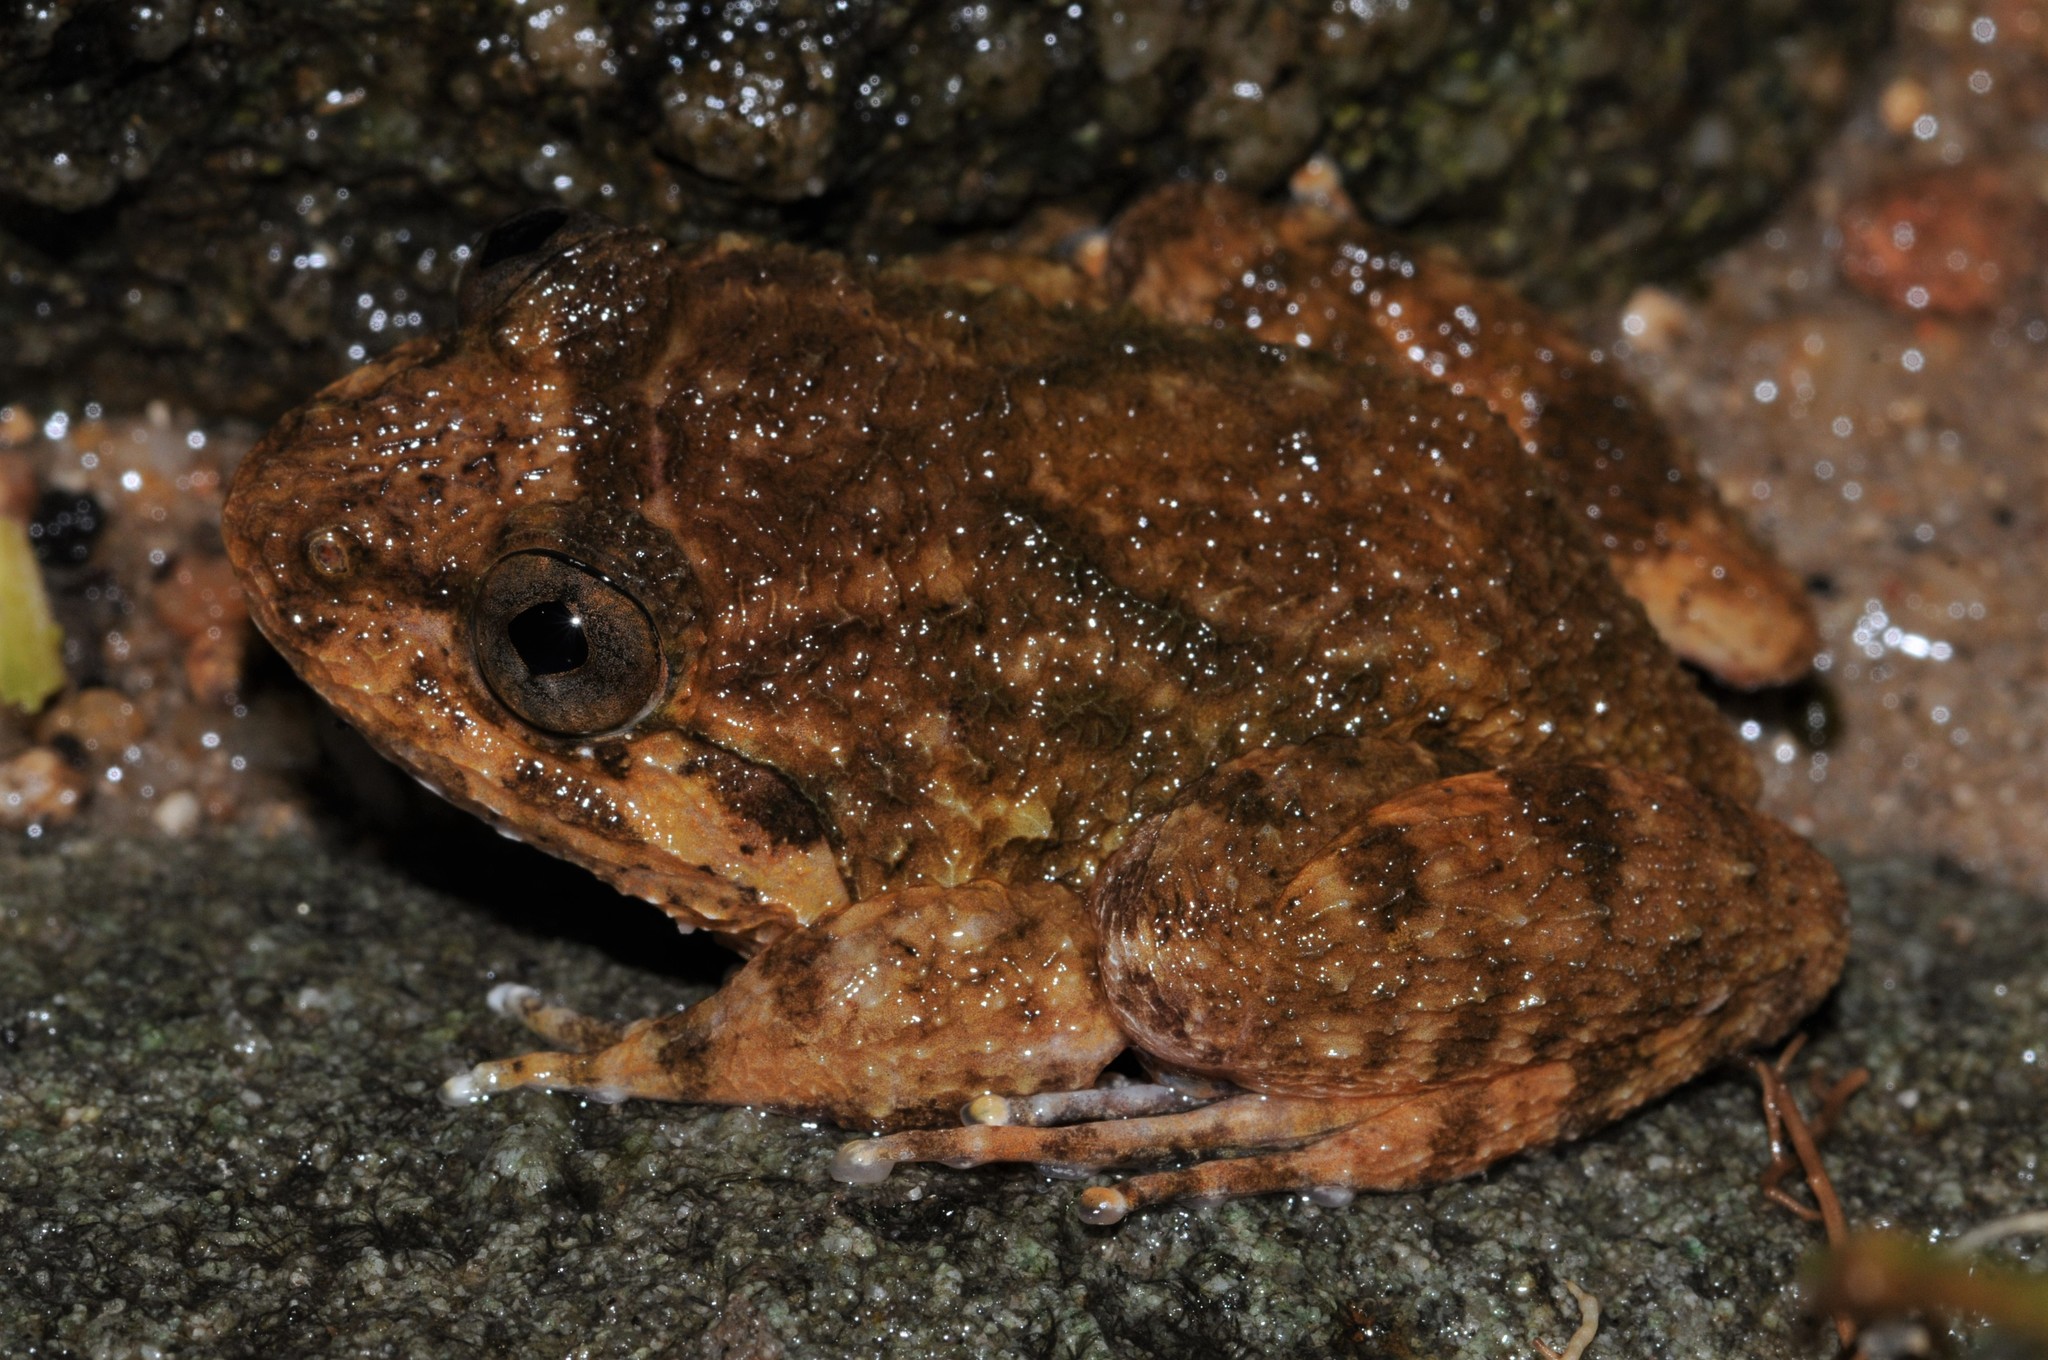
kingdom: Animalia
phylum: Chordata
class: Amphibia
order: Anura
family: Dicroglossidae
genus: Limnonectes
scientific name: Limnonectes deinodon
